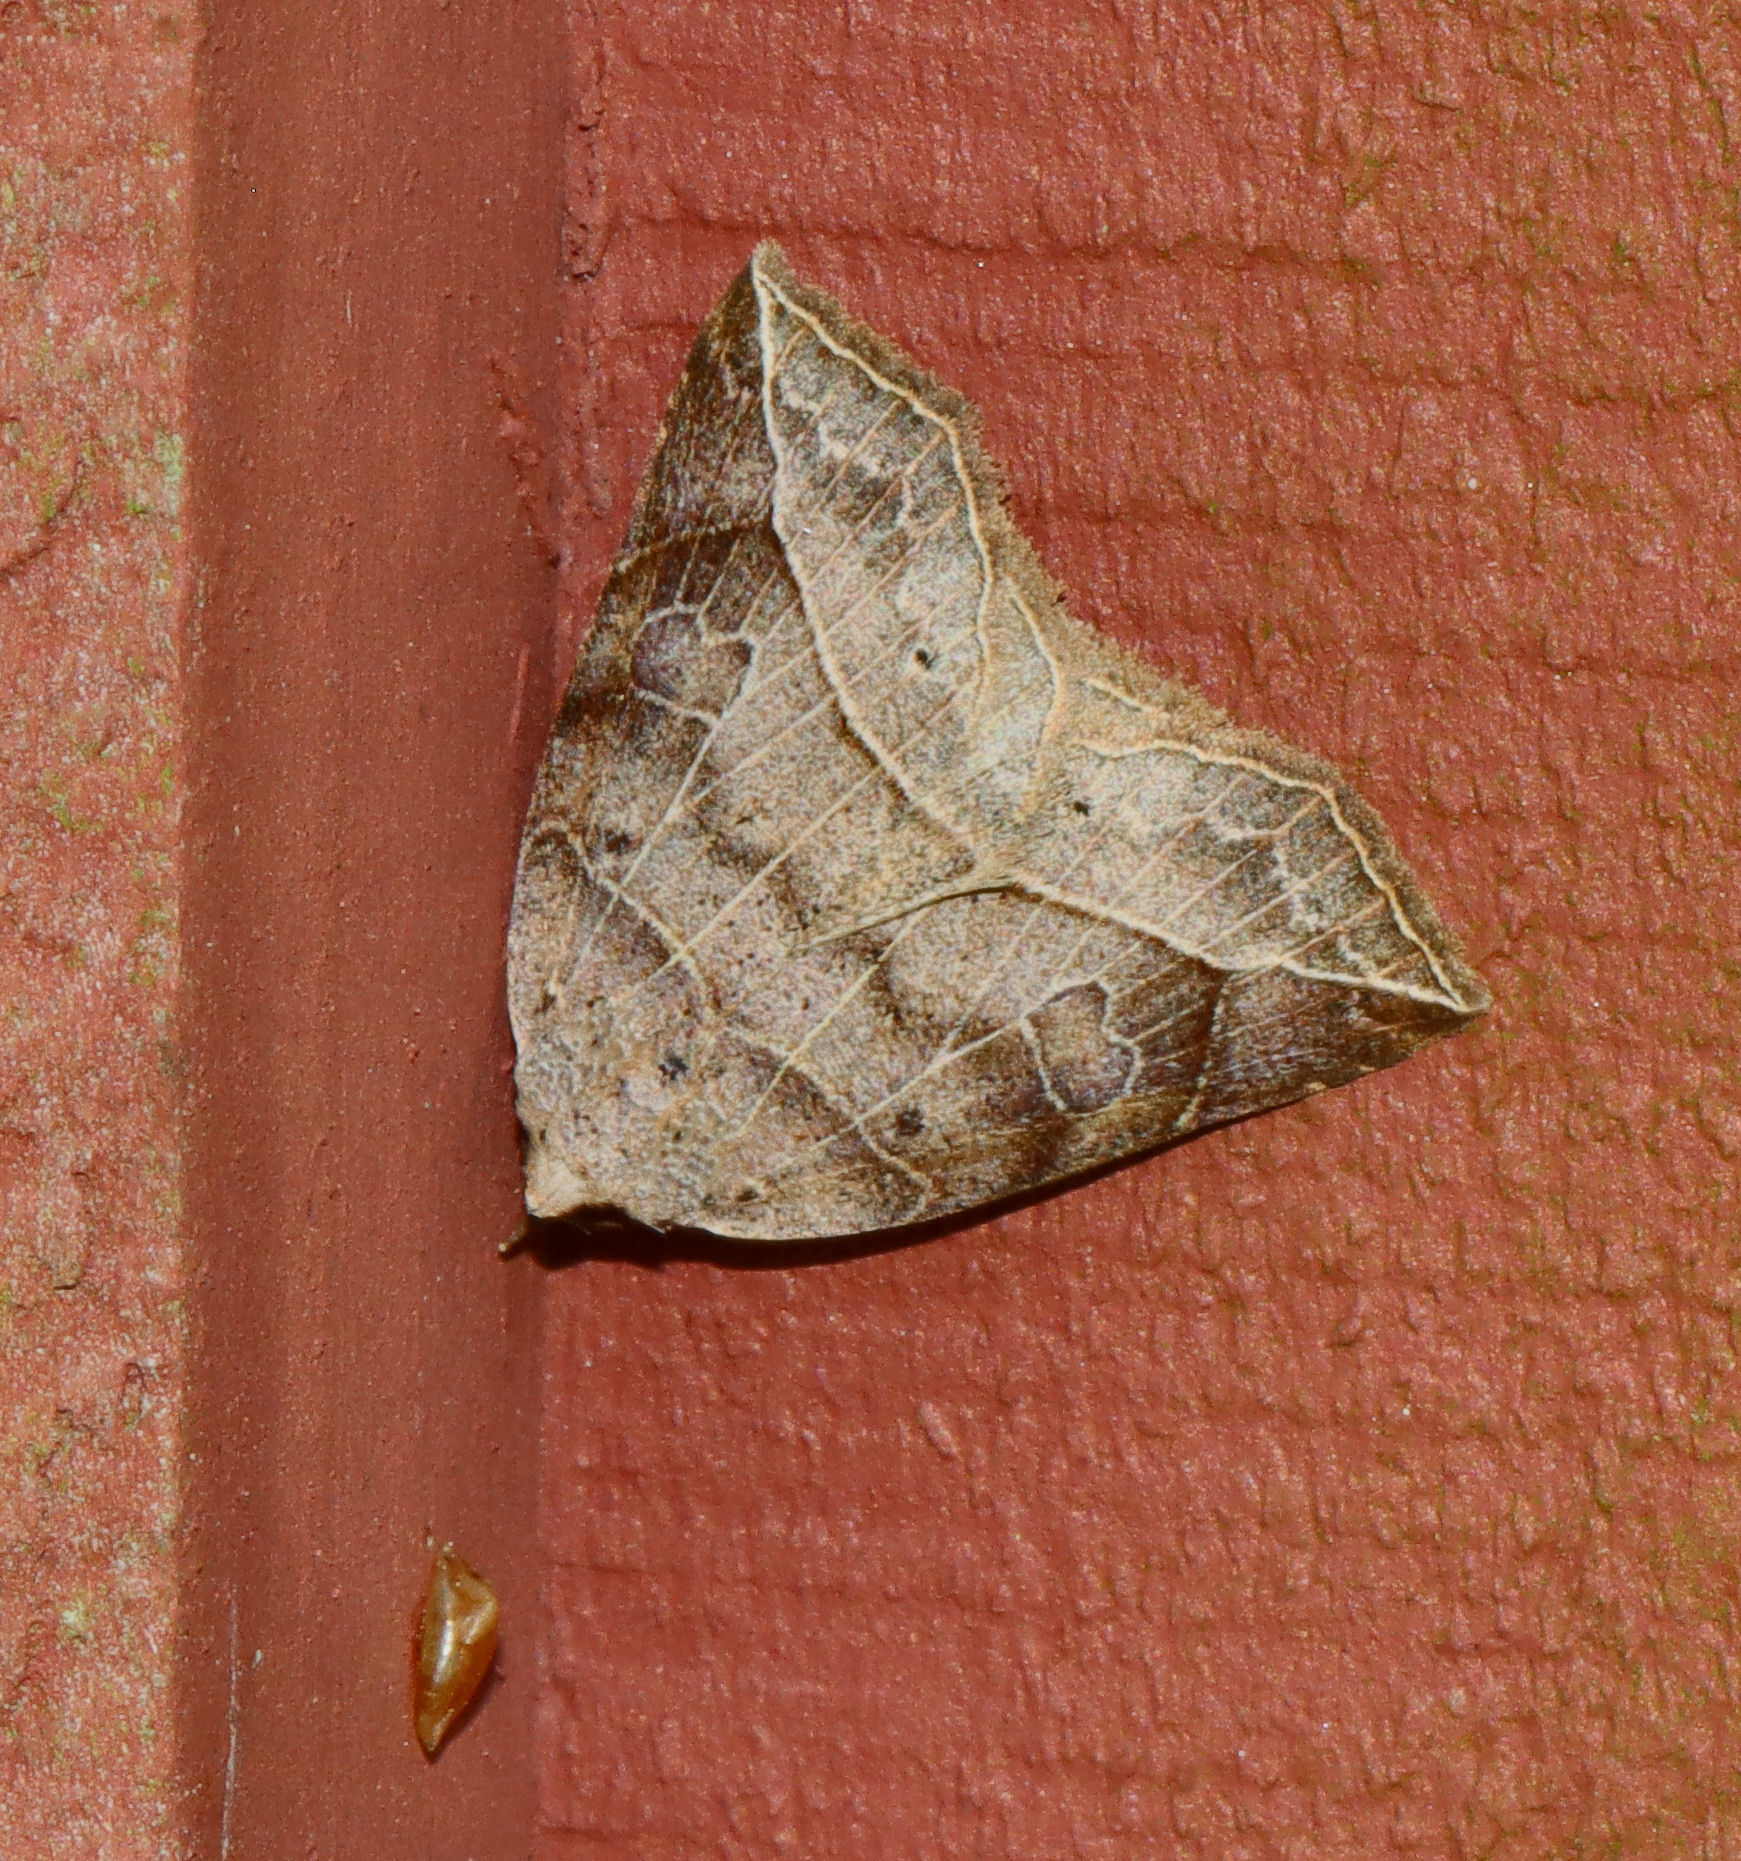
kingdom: Animalia
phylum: Arthropoda
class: Insecta
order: Lepidoptera
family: Erebidae
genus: Isogona
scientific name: Isogona tenuis
